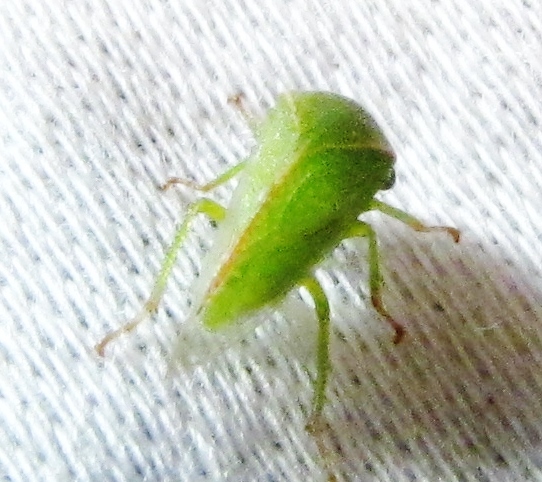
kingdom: Animalia
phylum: Arthropoda
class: Insecta
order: Hemiptera
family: Membracidae
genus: Spissistilus
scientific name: Spissistilus festina
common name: Membracid bug
